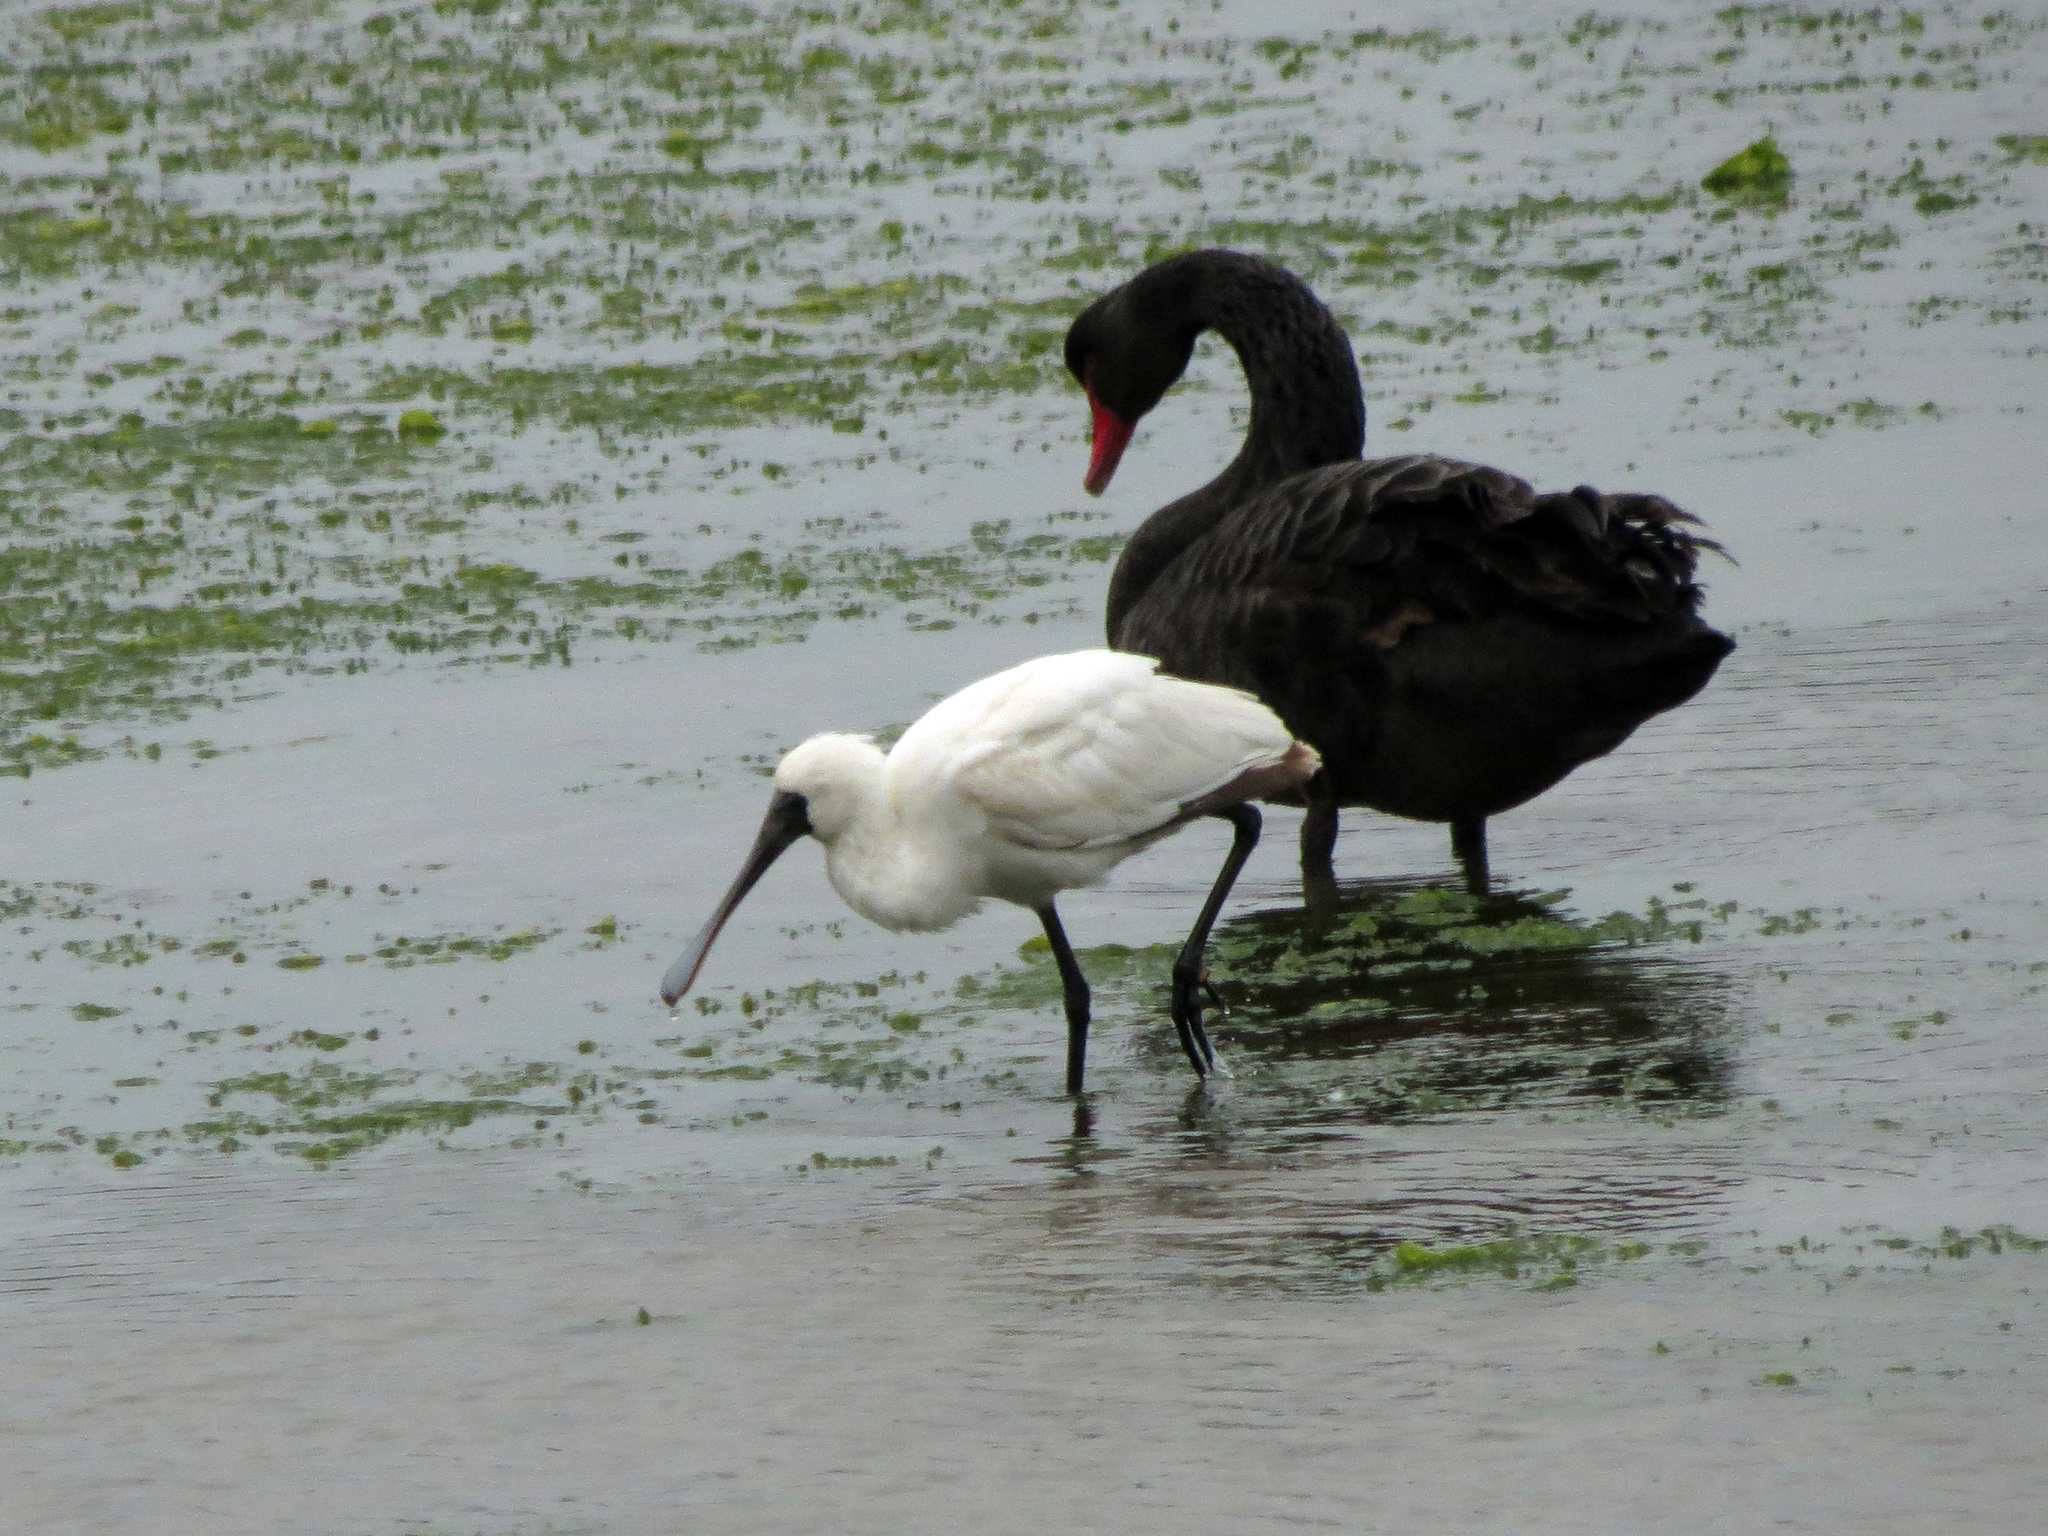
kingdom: Animalia
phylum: Chordata
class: Aves
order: Pelecaniformes
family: Threskiornithidae
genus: Platalea
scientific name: Platalea regia
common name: Royal spoonbill
